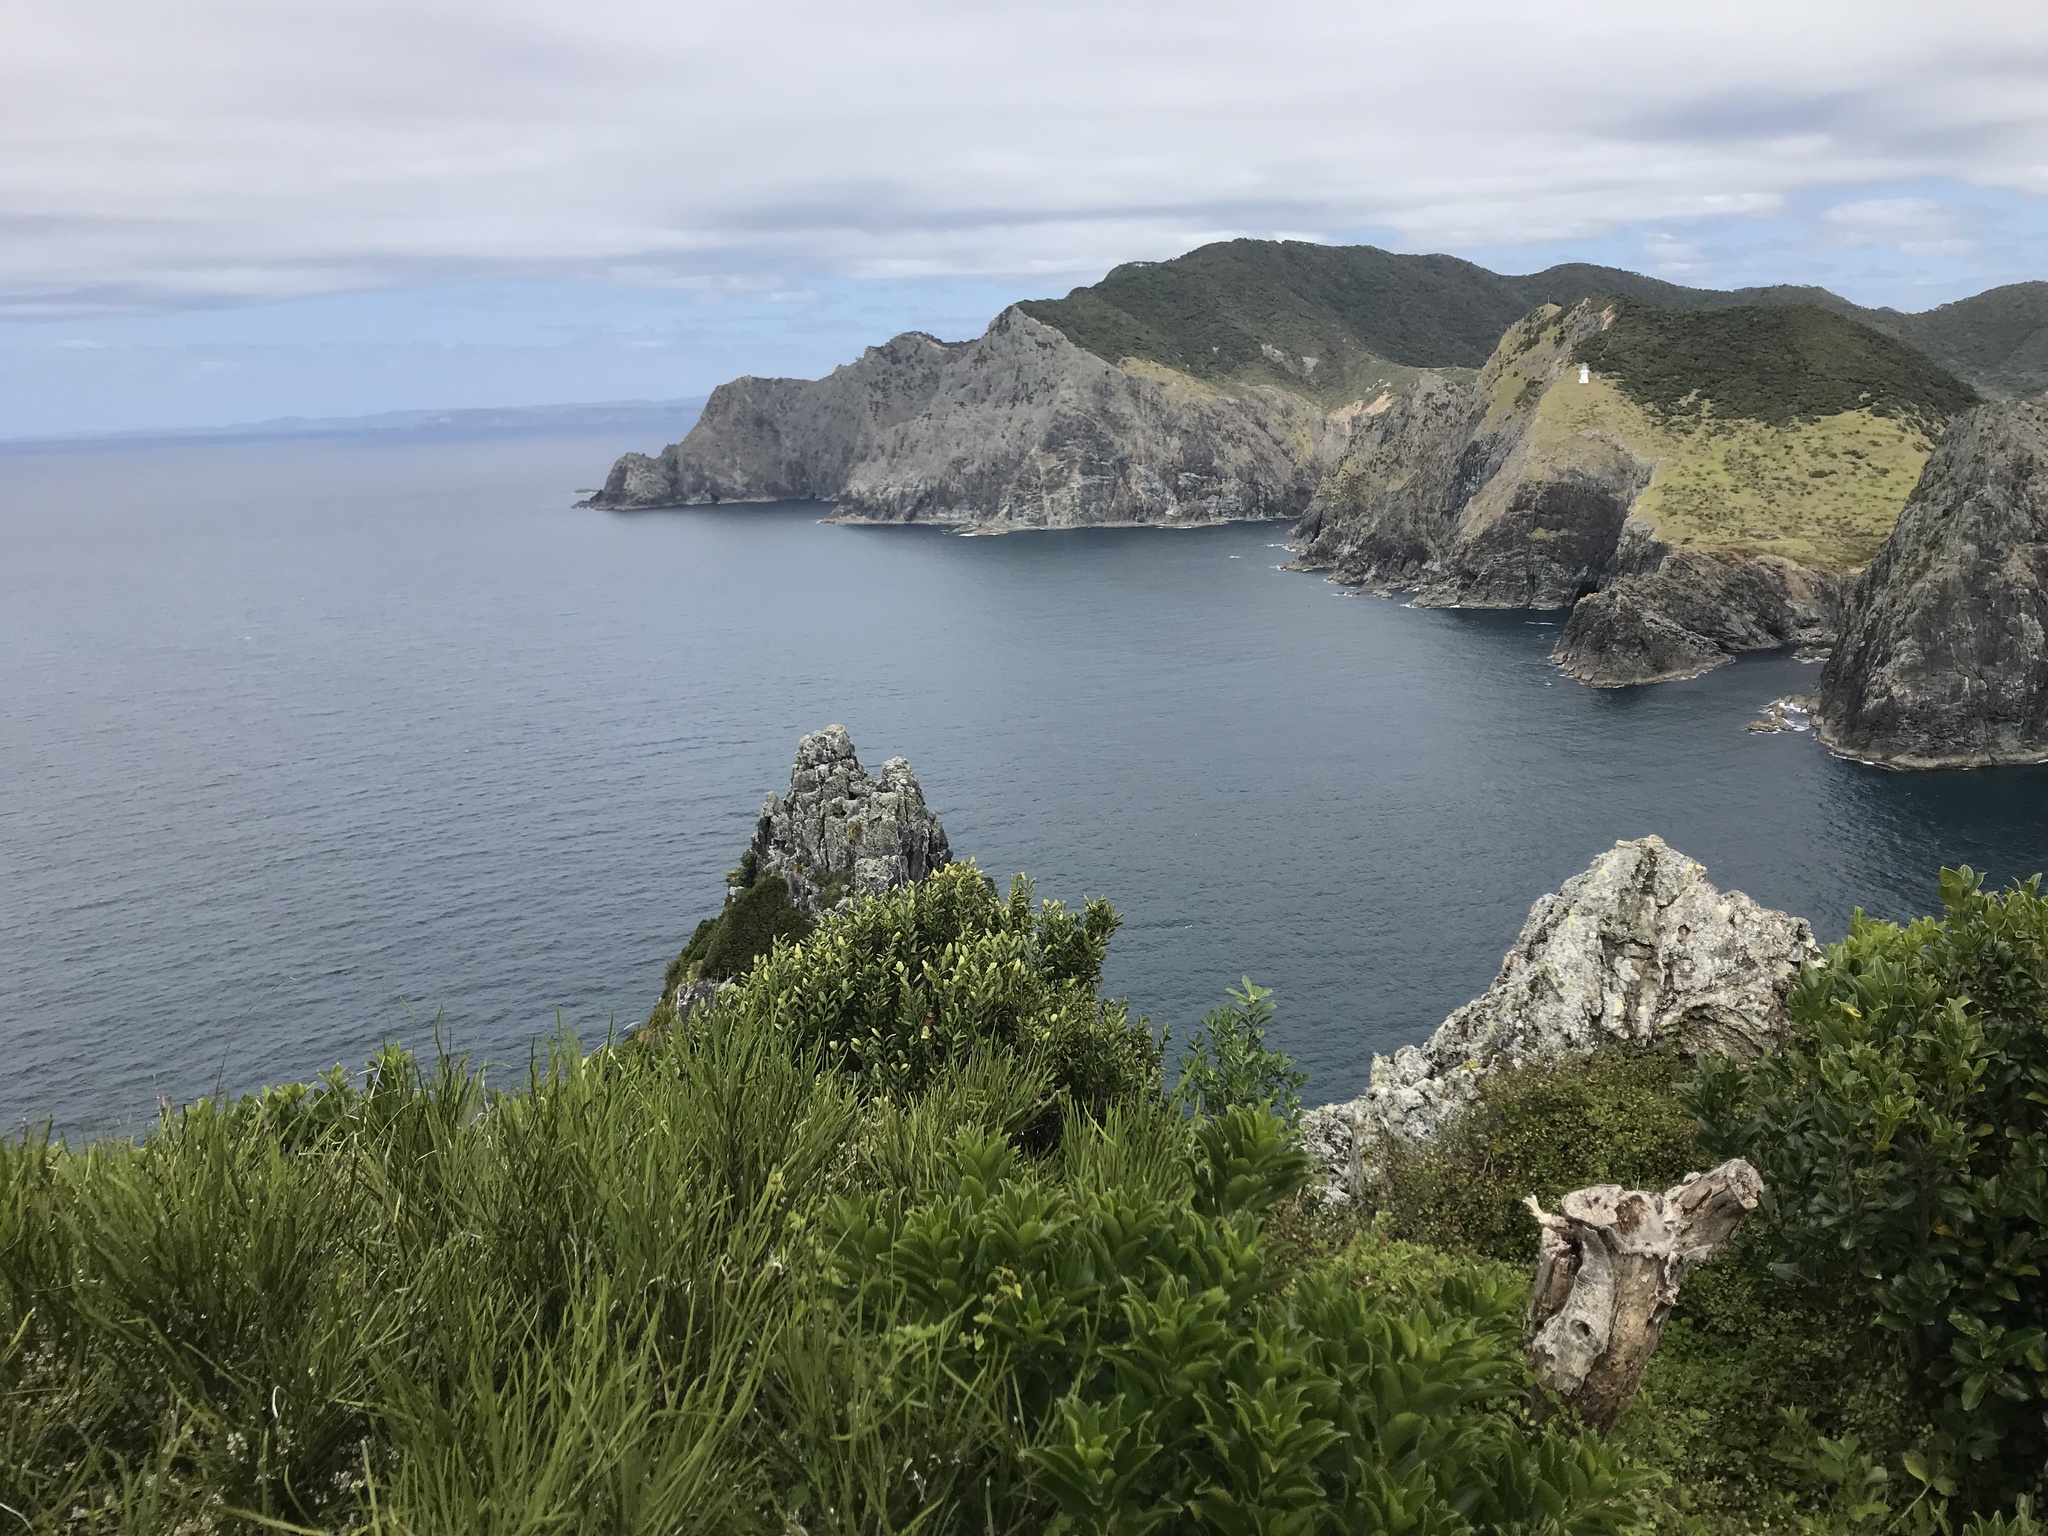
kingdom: Plantae
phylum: Tracheophyta
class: Magnoliopsida
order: Malpighiales
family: Violaceae
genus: Melicytus
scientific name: Melicytus ramiflorus
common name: Mahoe
